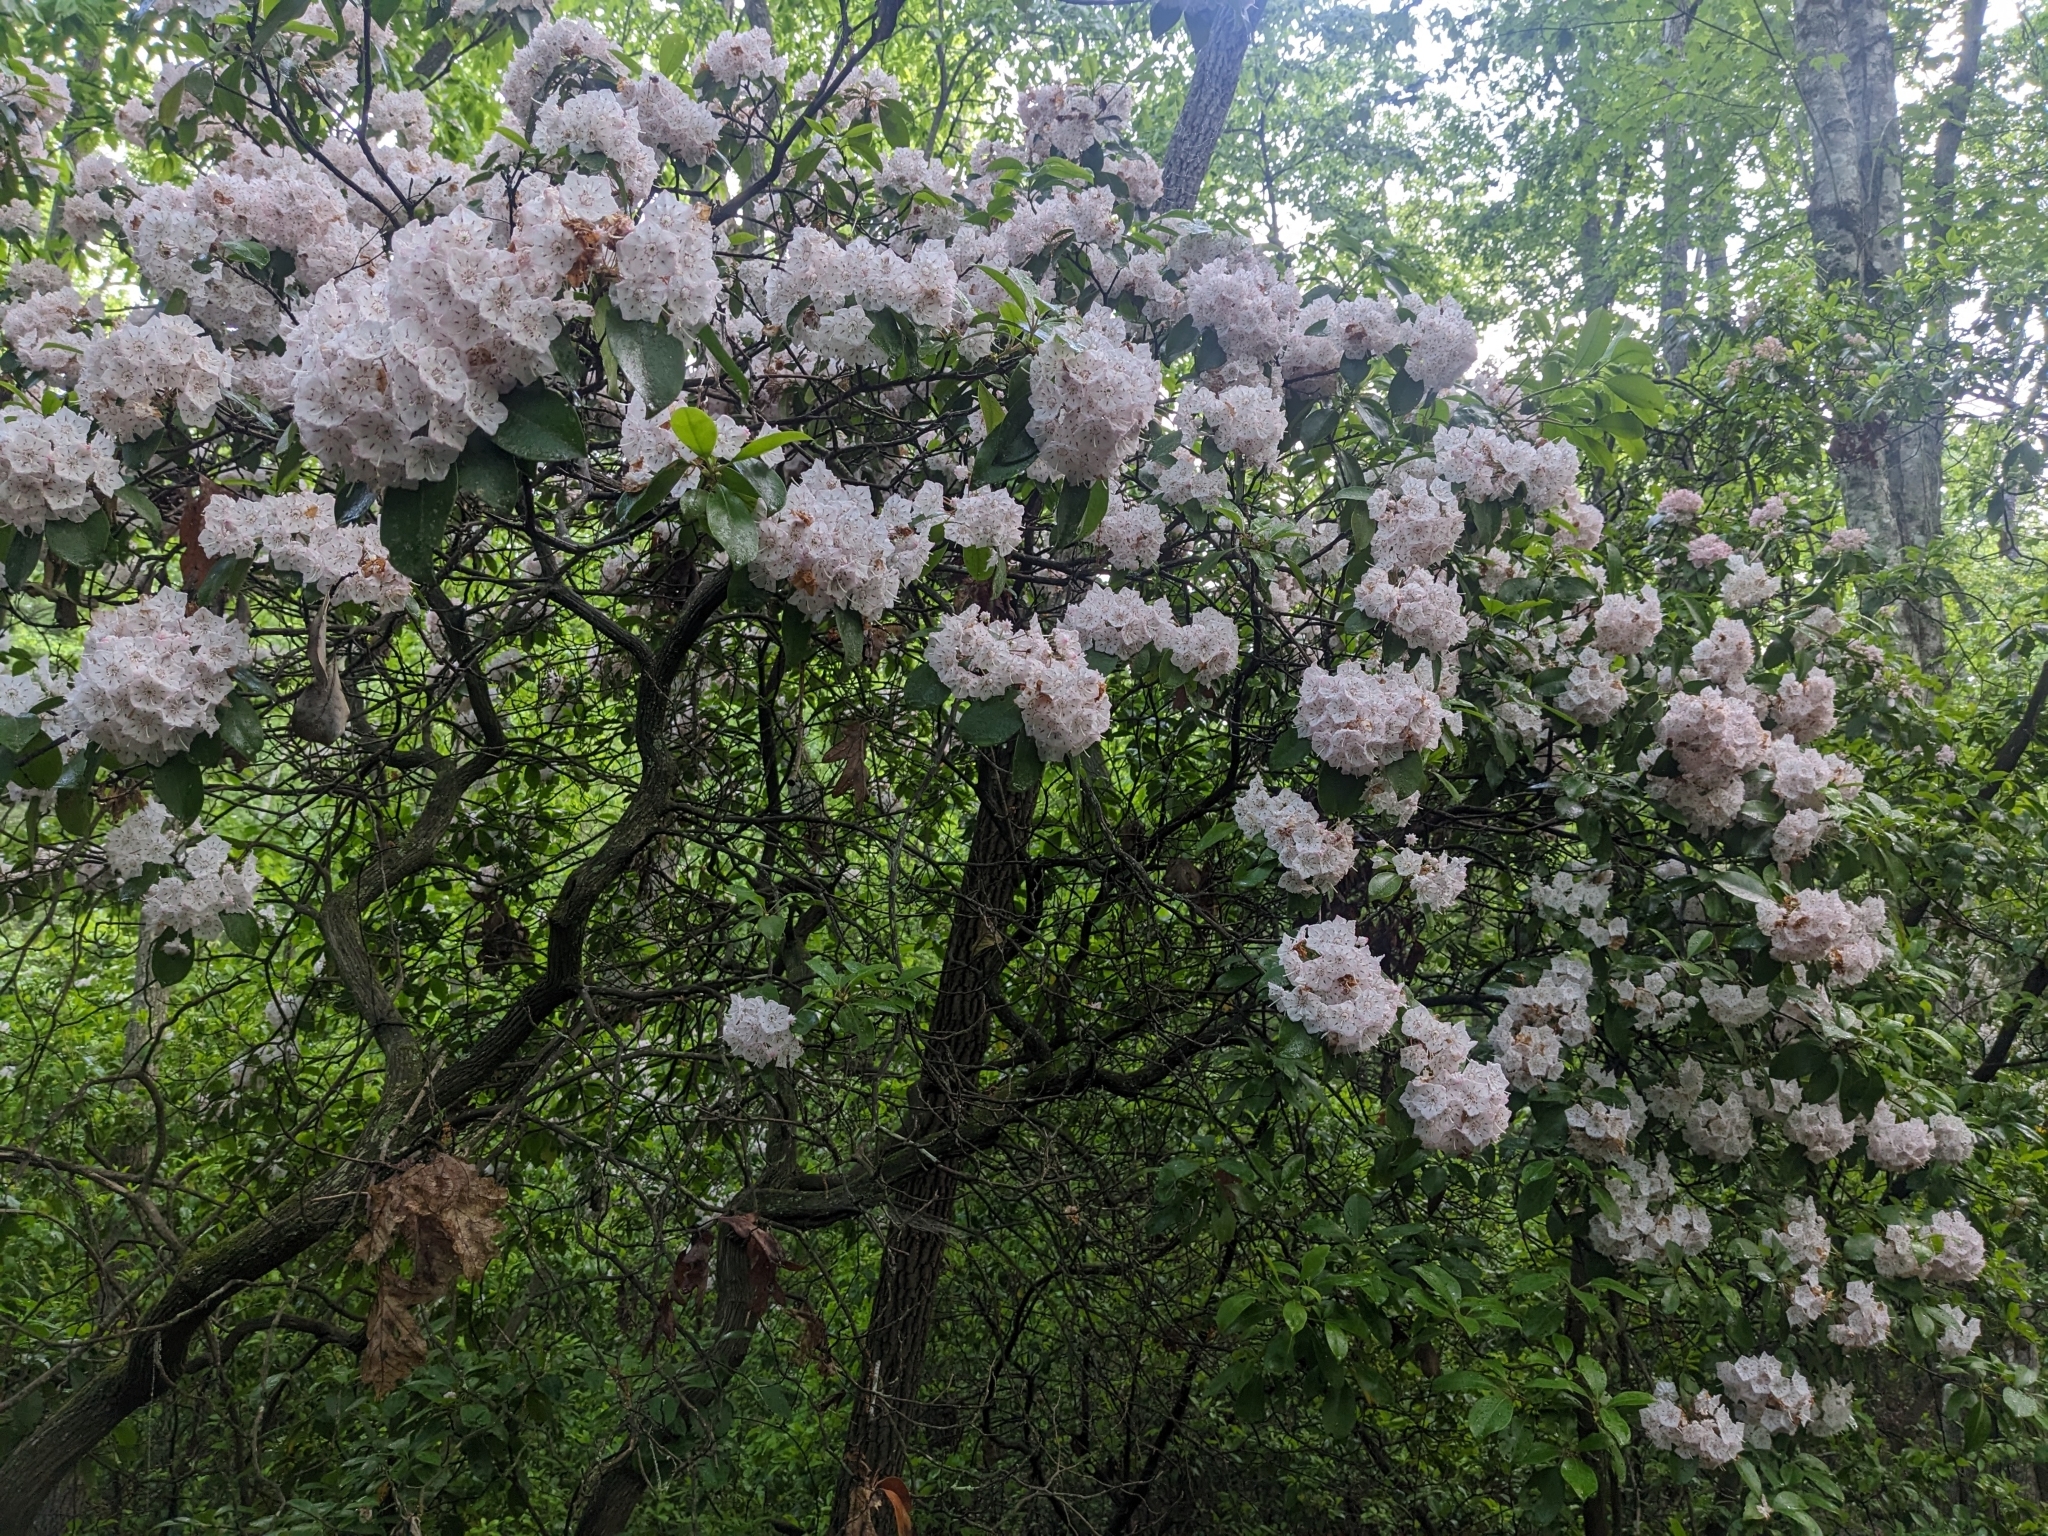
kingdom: Plantae
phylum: Tracheophyta
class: Magnoliopsida
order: Ericales
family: Ericaceae
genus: Kalmia
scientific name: Kalmia latifolia
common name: Mountain-laurel
